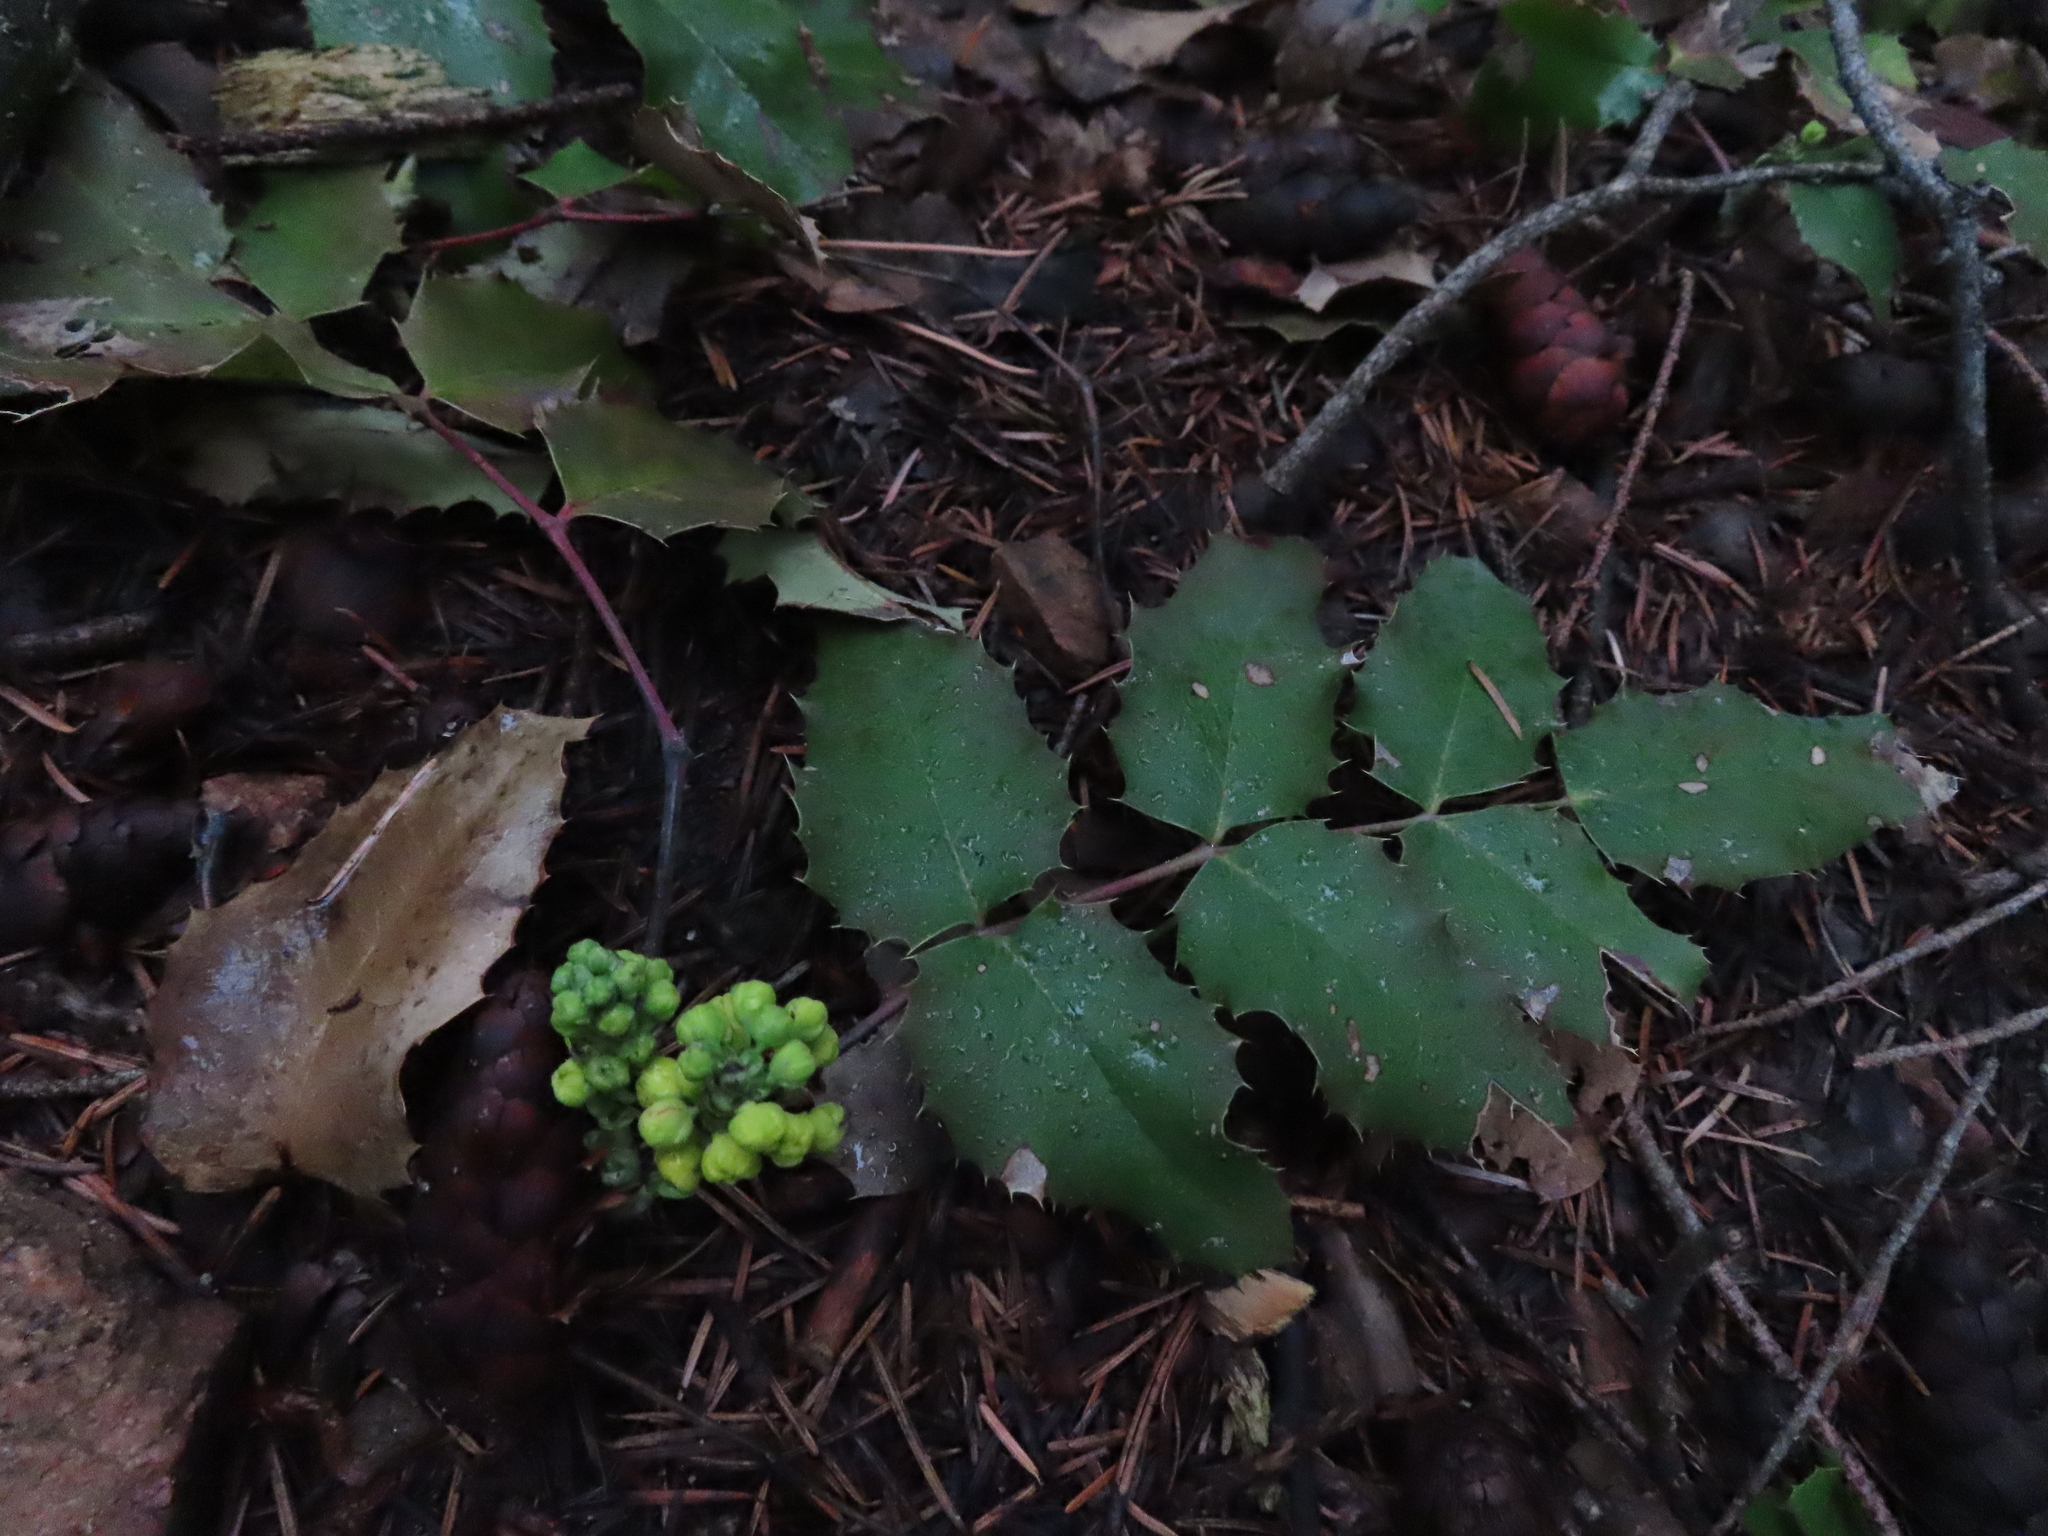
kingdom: Plantae
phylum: Tracheophyta
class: Magnoliopsida
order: Ranunculales
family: Berberidaceae
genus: Mahonia
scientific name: Mahonia repens
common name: Creeping oregon-grape
